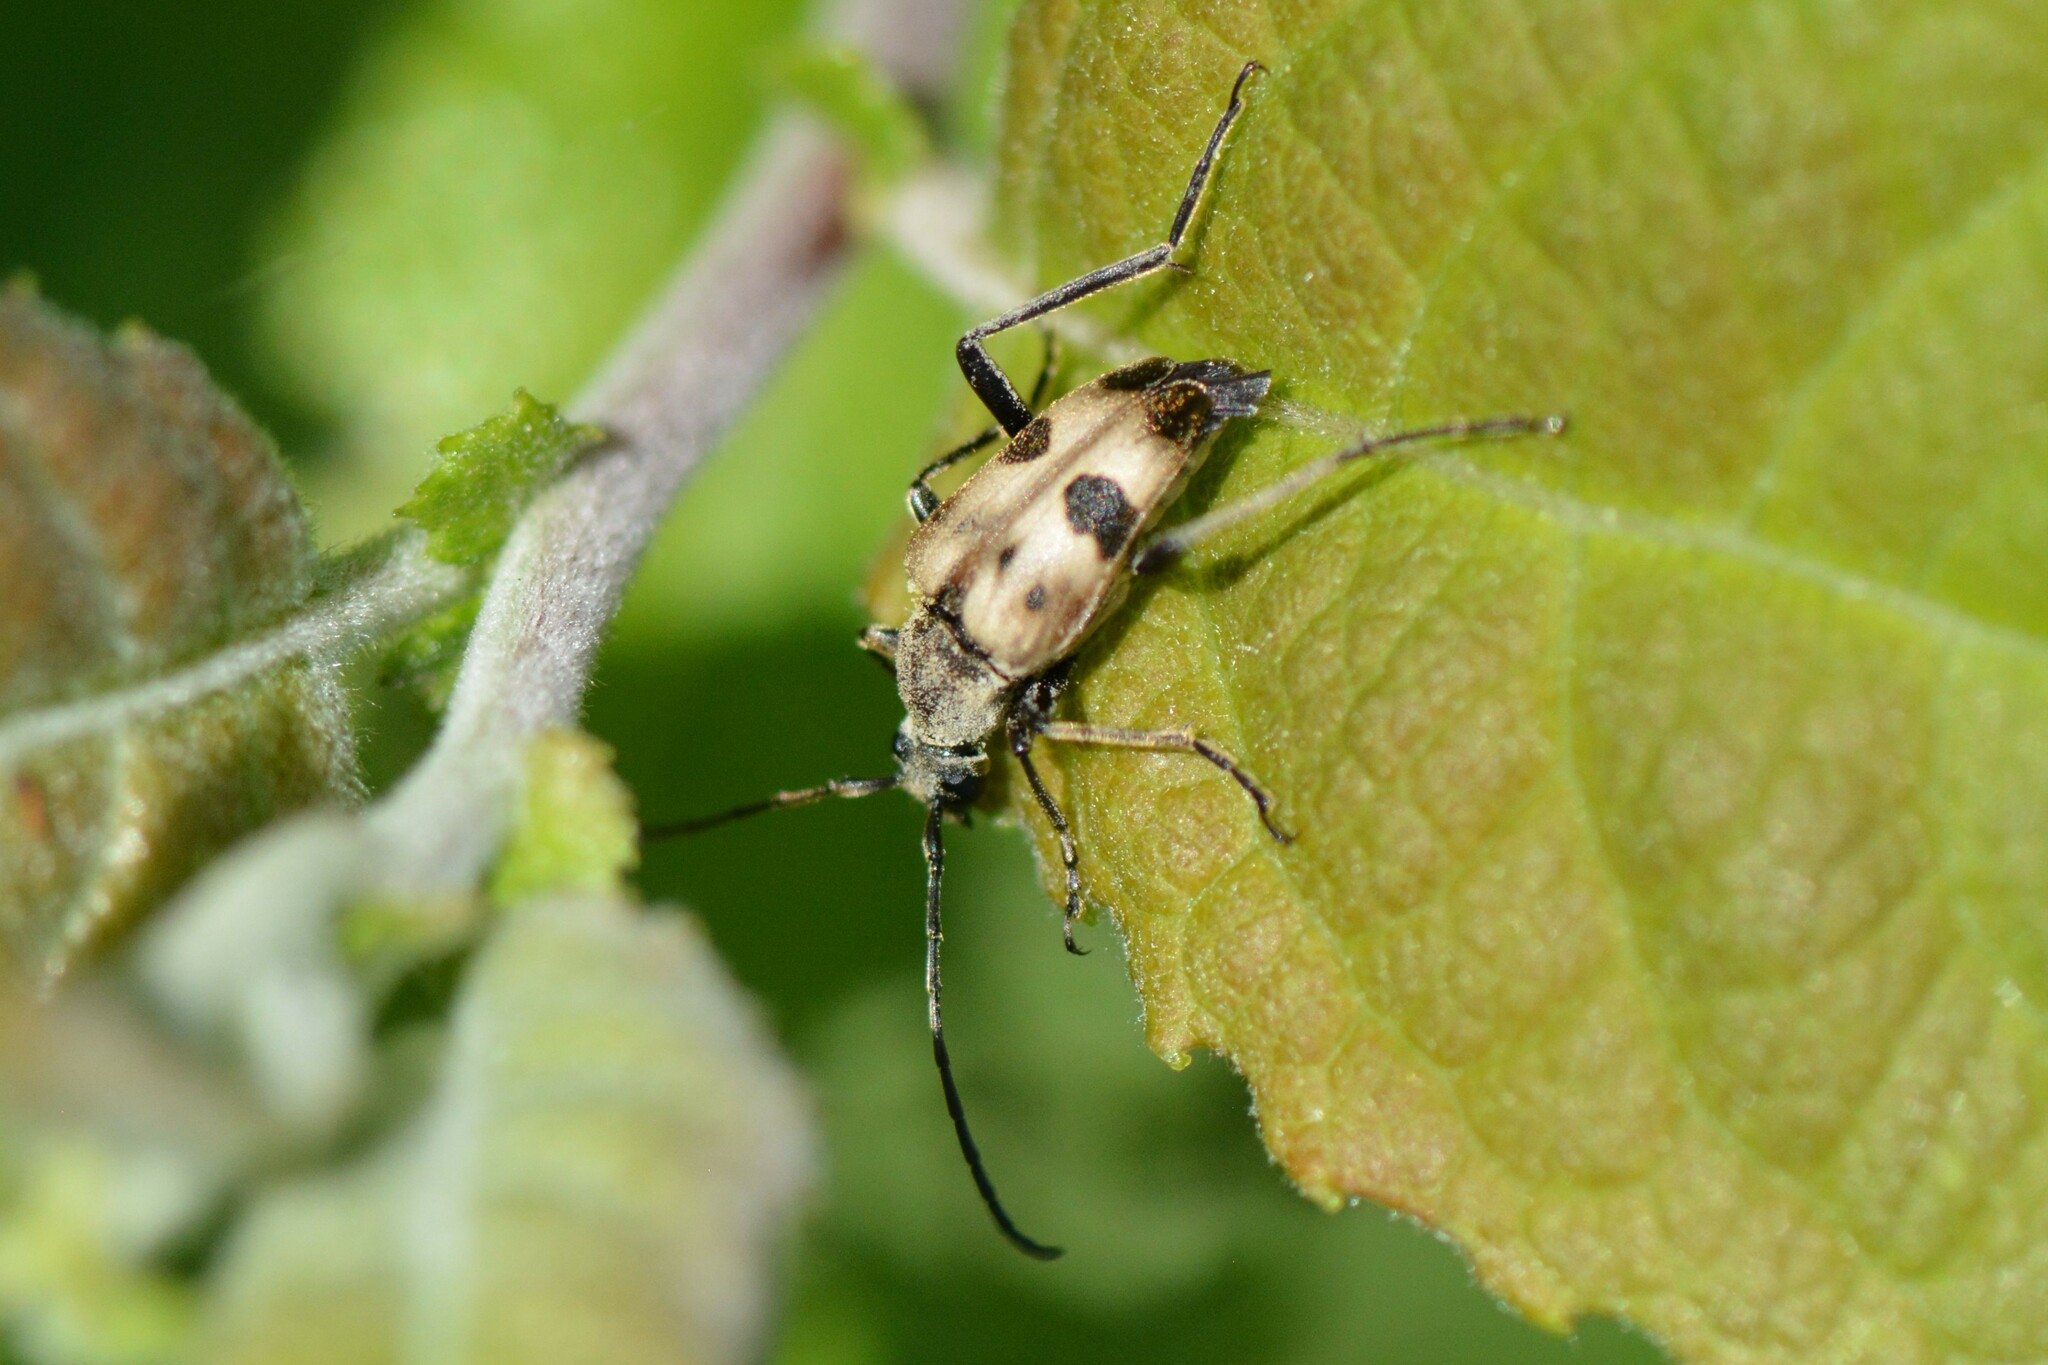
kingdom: Animalia
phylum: Arthropoda
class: Insecta
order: Coleoptera
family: Cerambycidae
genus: Pachytodes
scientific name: Pachytodes cerambyciformis
